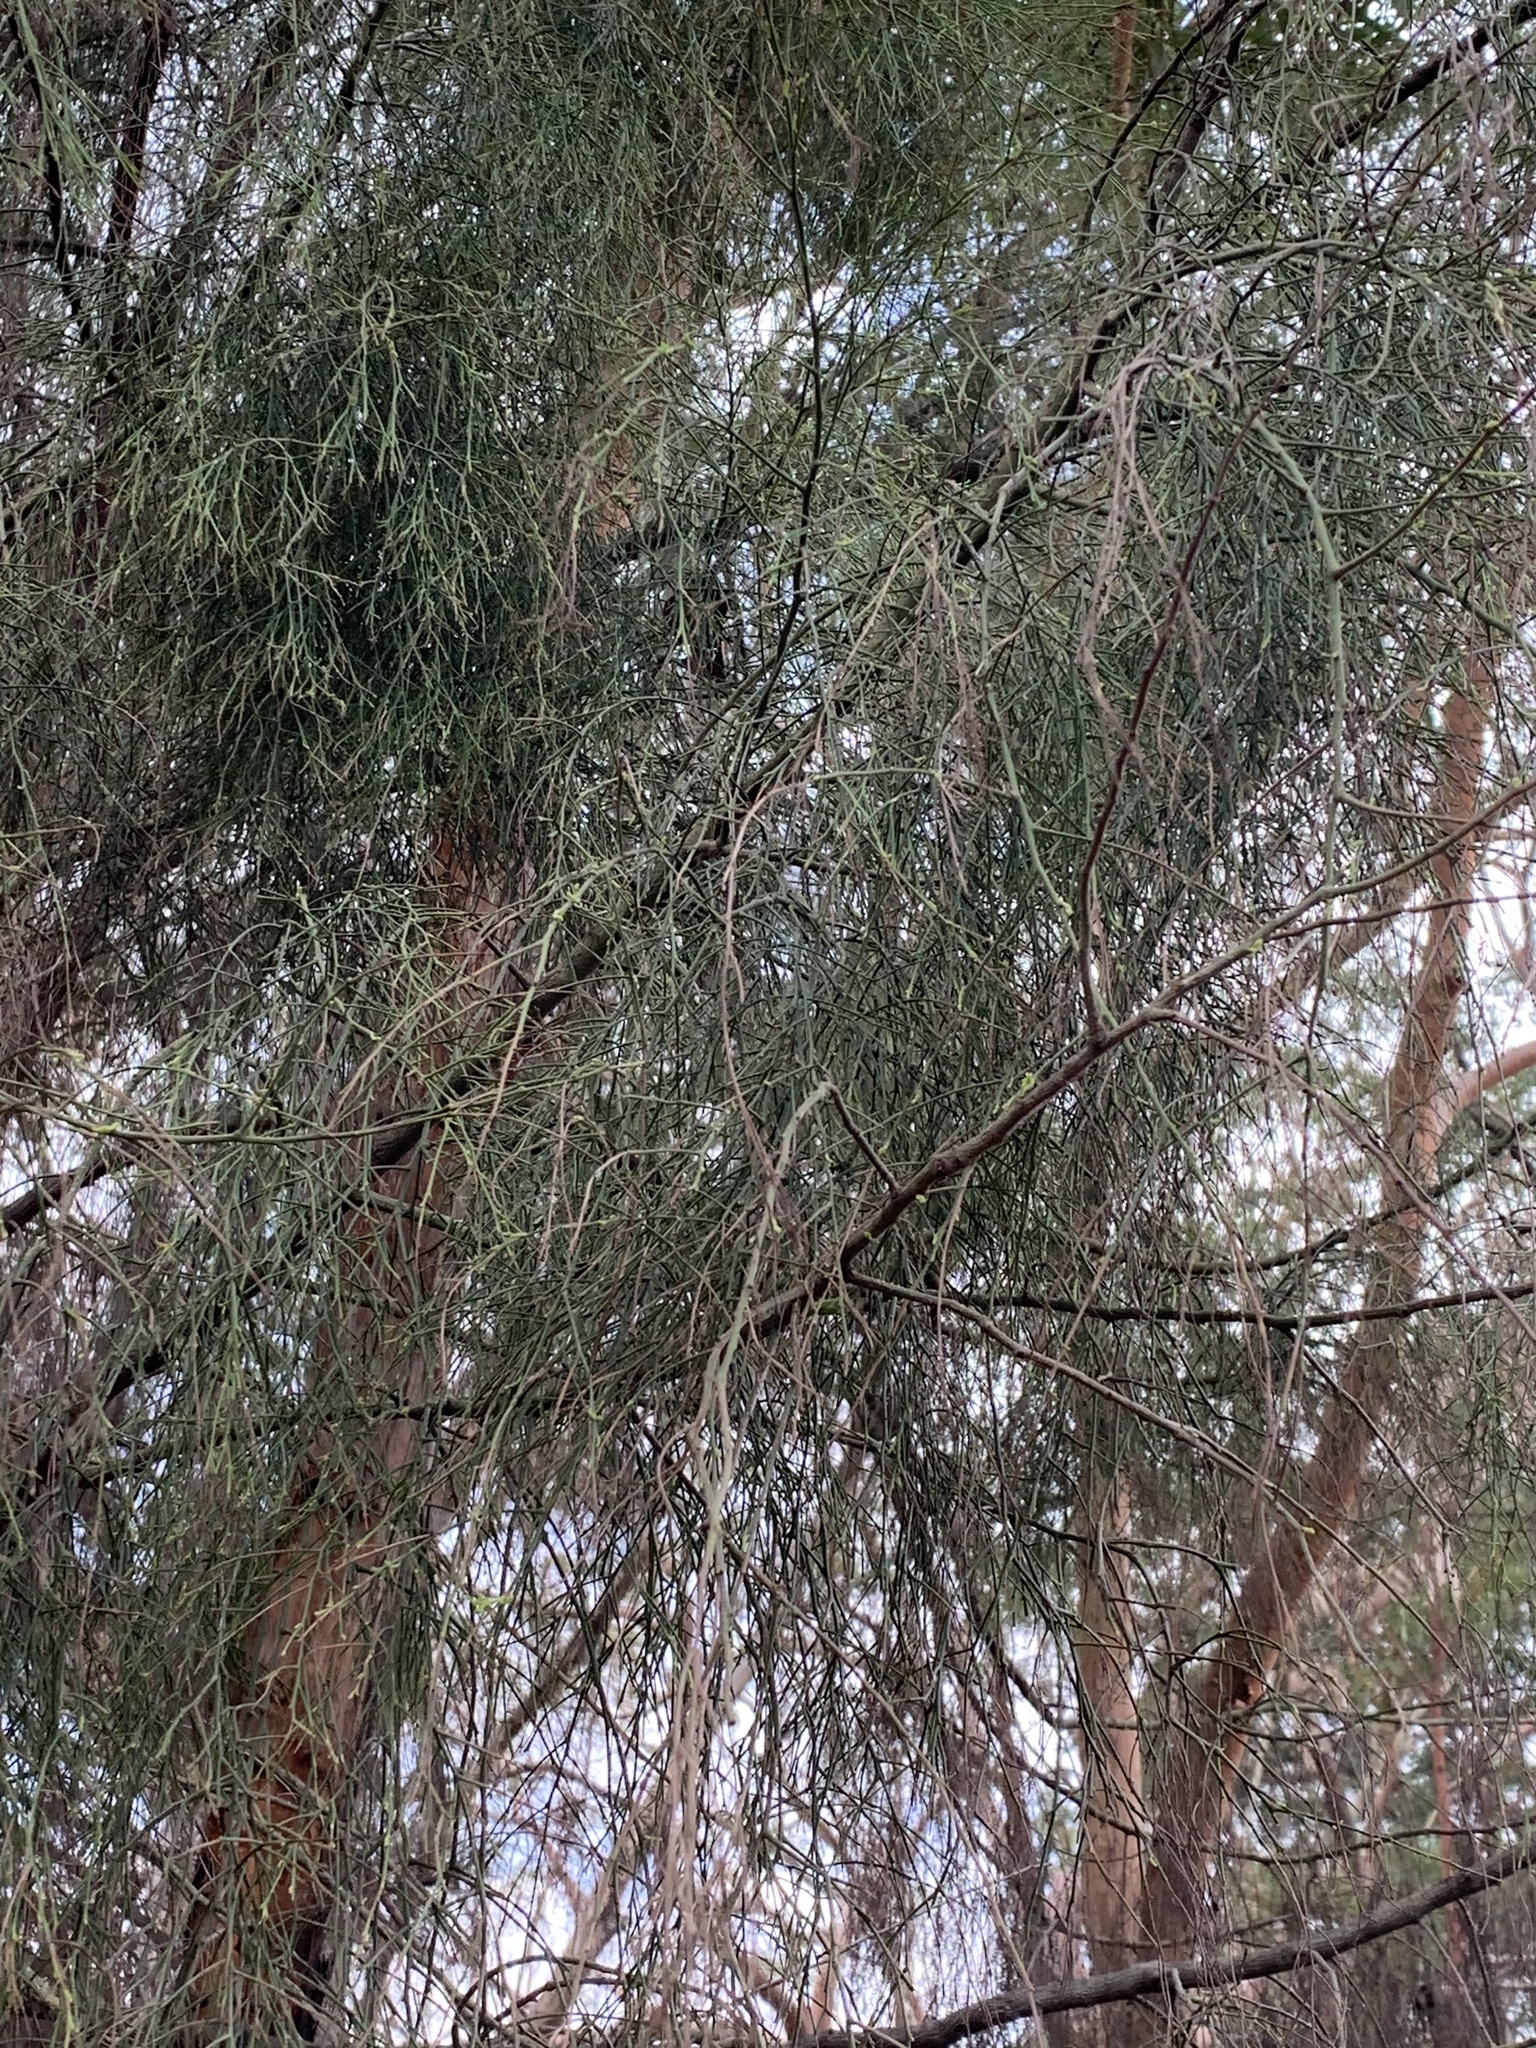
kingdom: Plantae
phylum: Tracheophyta
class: Magnoliopsida
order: Santalales
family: Santalaceae
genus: Exocarpos
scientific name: Exocarpos cupressiformis
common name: Cherry ballart
